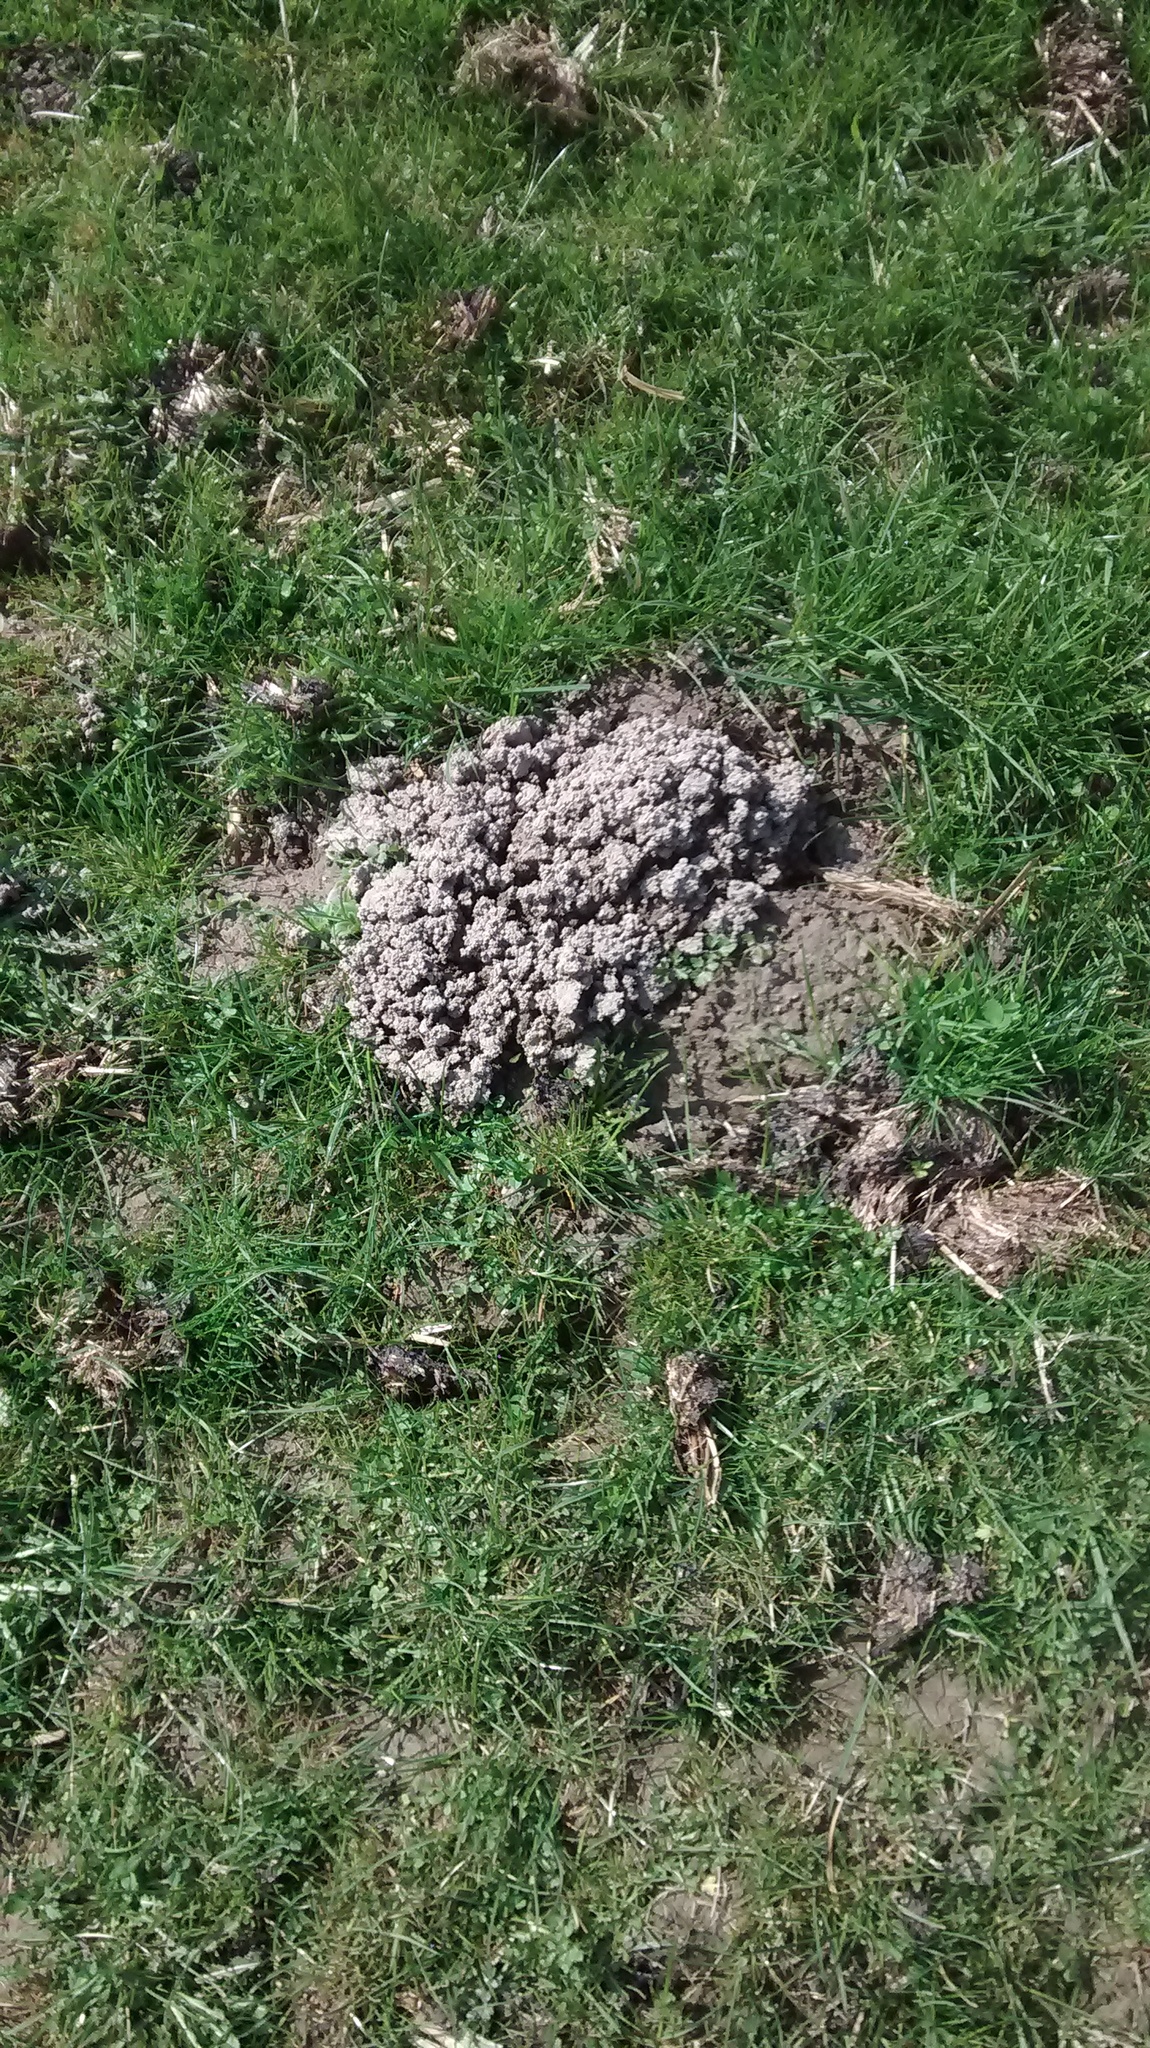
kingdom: Animalia
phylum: Chordata
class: Mammalia
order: Soricomorpha
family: Talpidae
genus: Talpa
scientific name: Talpa europaea
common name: European mole
